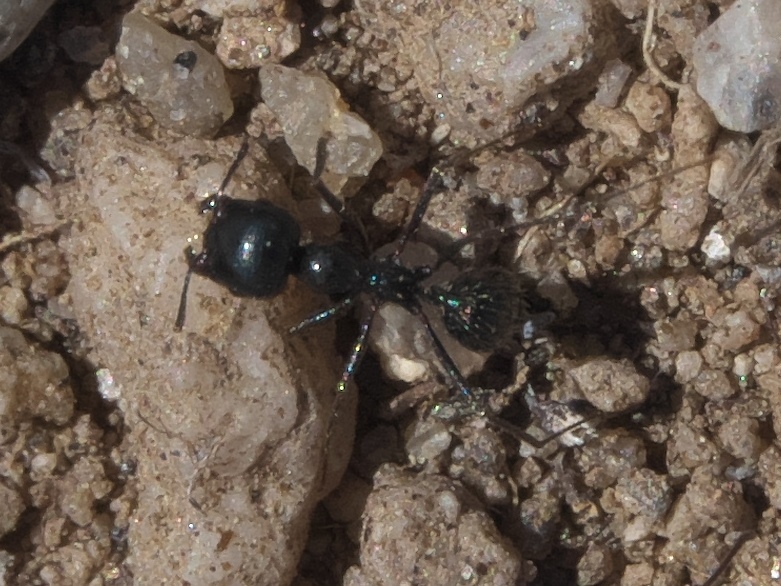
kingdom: Animalia
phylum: Arthropoda
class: Insecta
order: Hymenoptera
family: Formicidae
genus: Messor
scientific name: Messor pergandei
